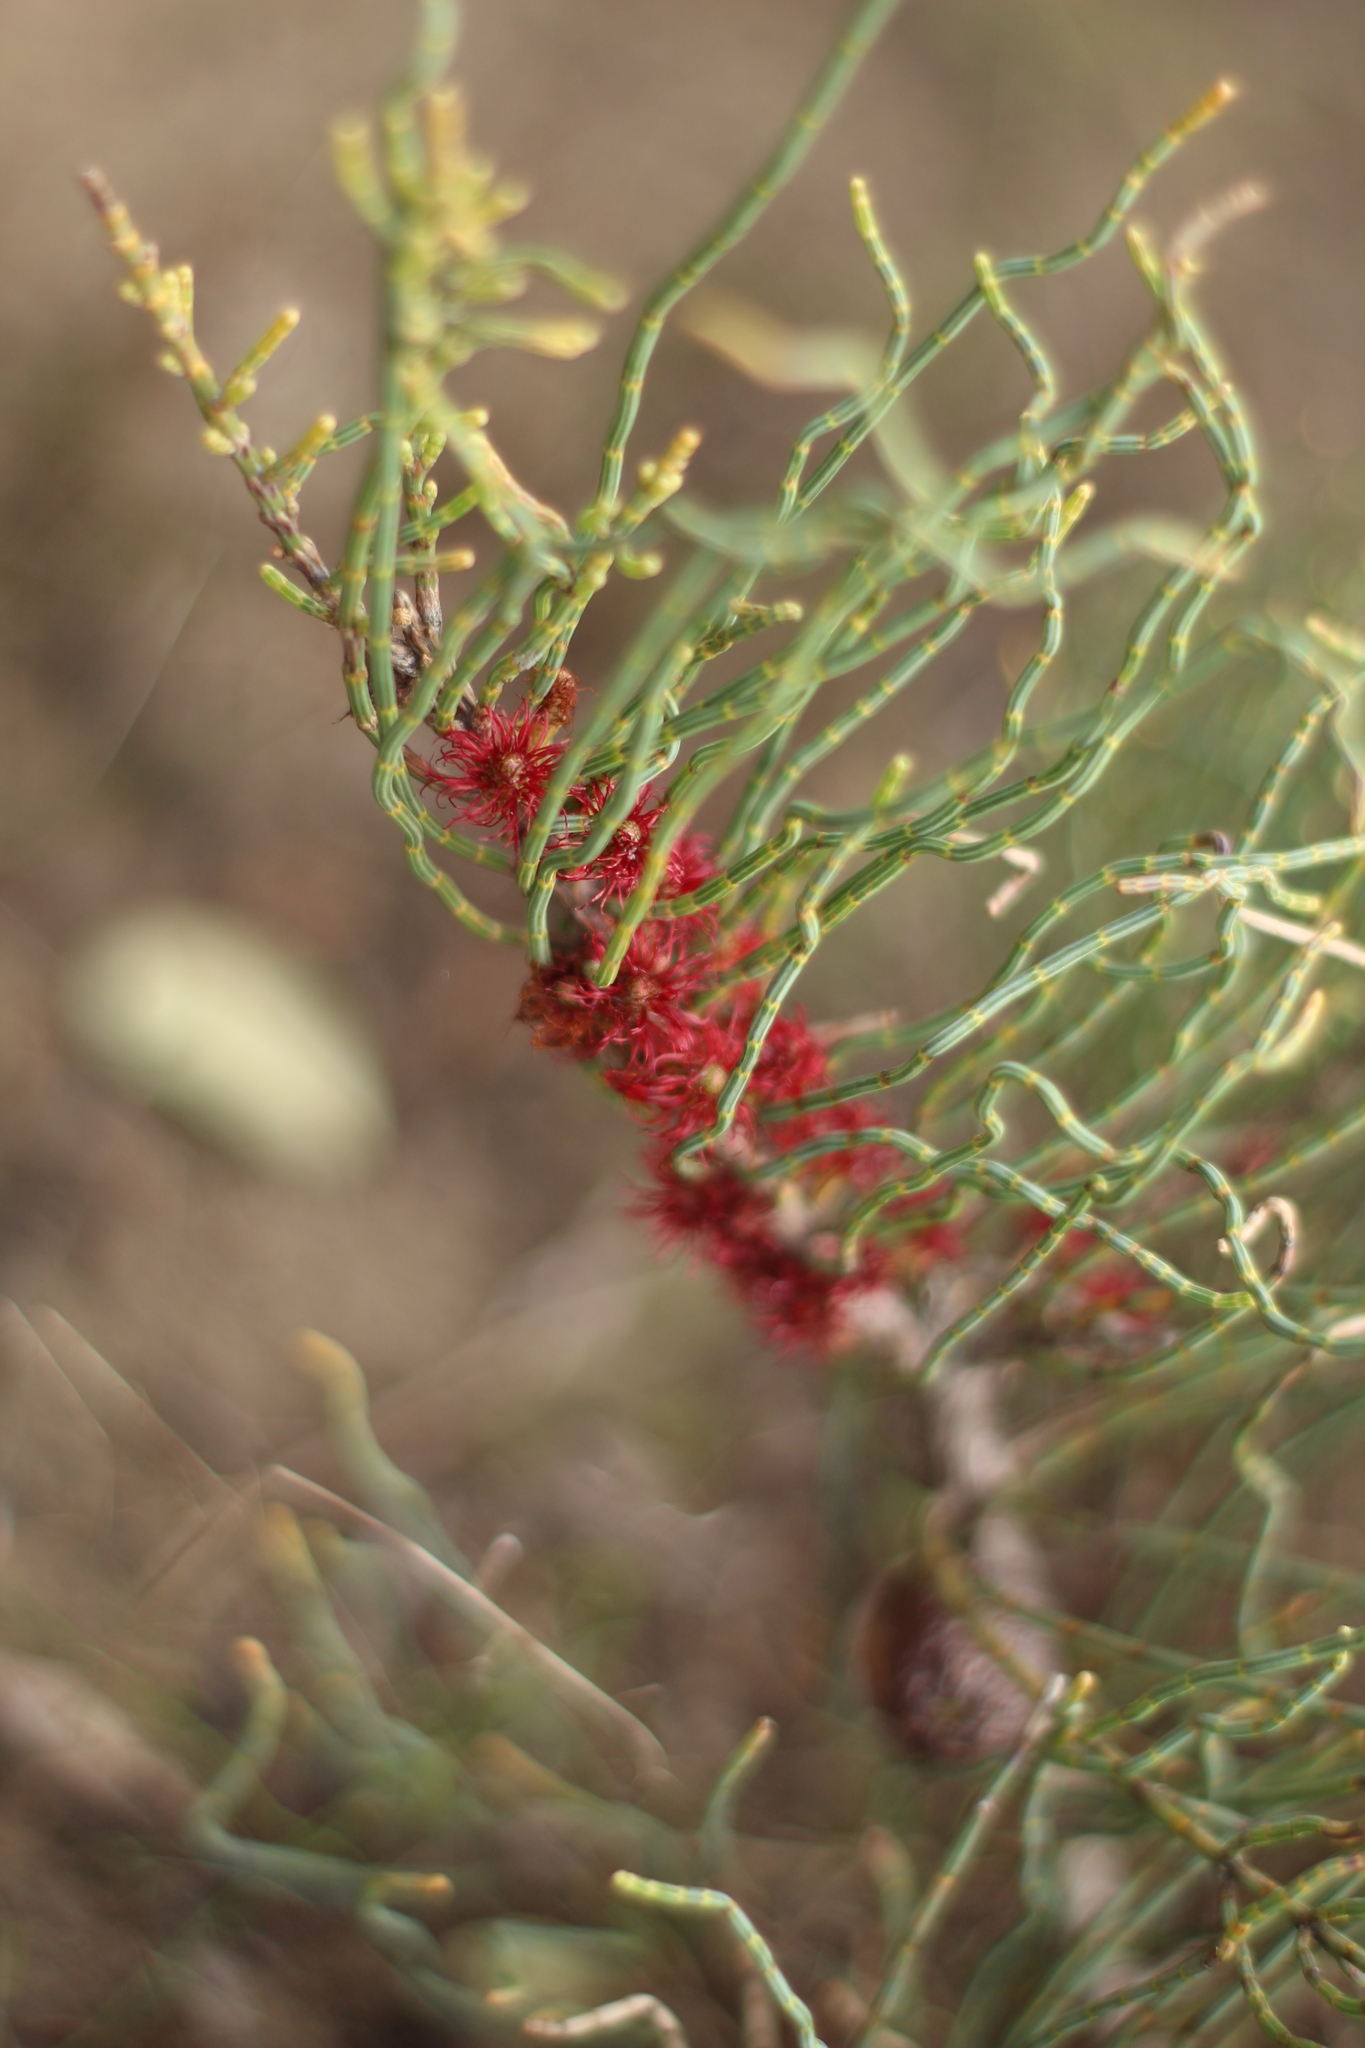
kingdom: Plantae
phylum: Tracheophyta
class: Magnoliopsida
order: Fagales
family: Casuarinaceae
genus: Allocasuarina
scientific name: Allocasuarina humilis
